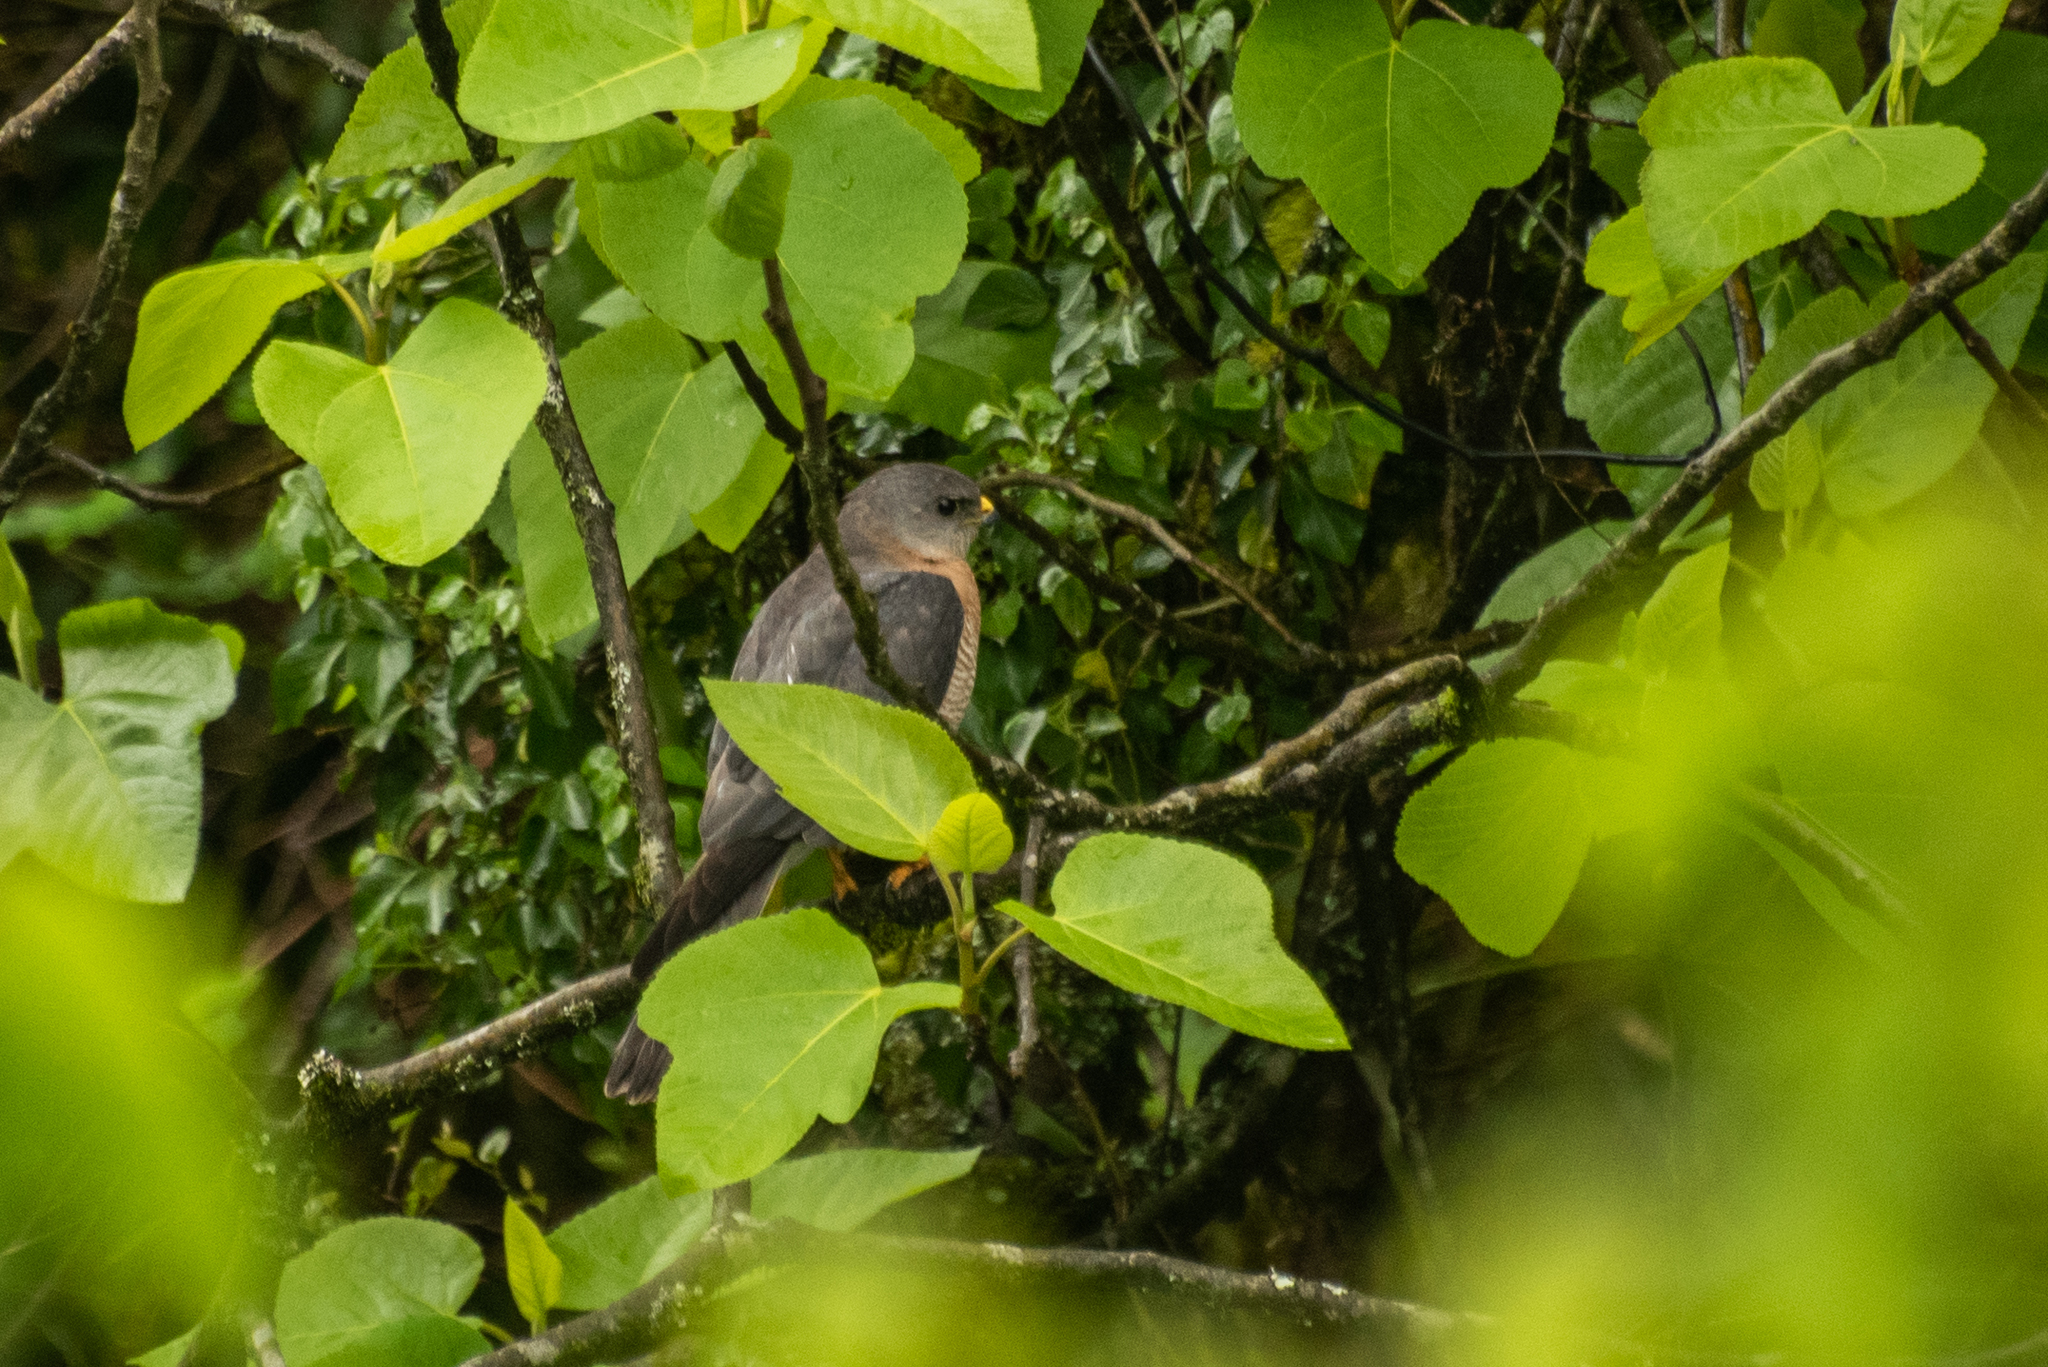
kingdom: Animalia
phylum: Chordata
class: Aves
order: Accipitriformes
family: Accipitridae
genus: Accipiter
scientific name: Accipiter brevipes
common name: Levant sparrowhawk
